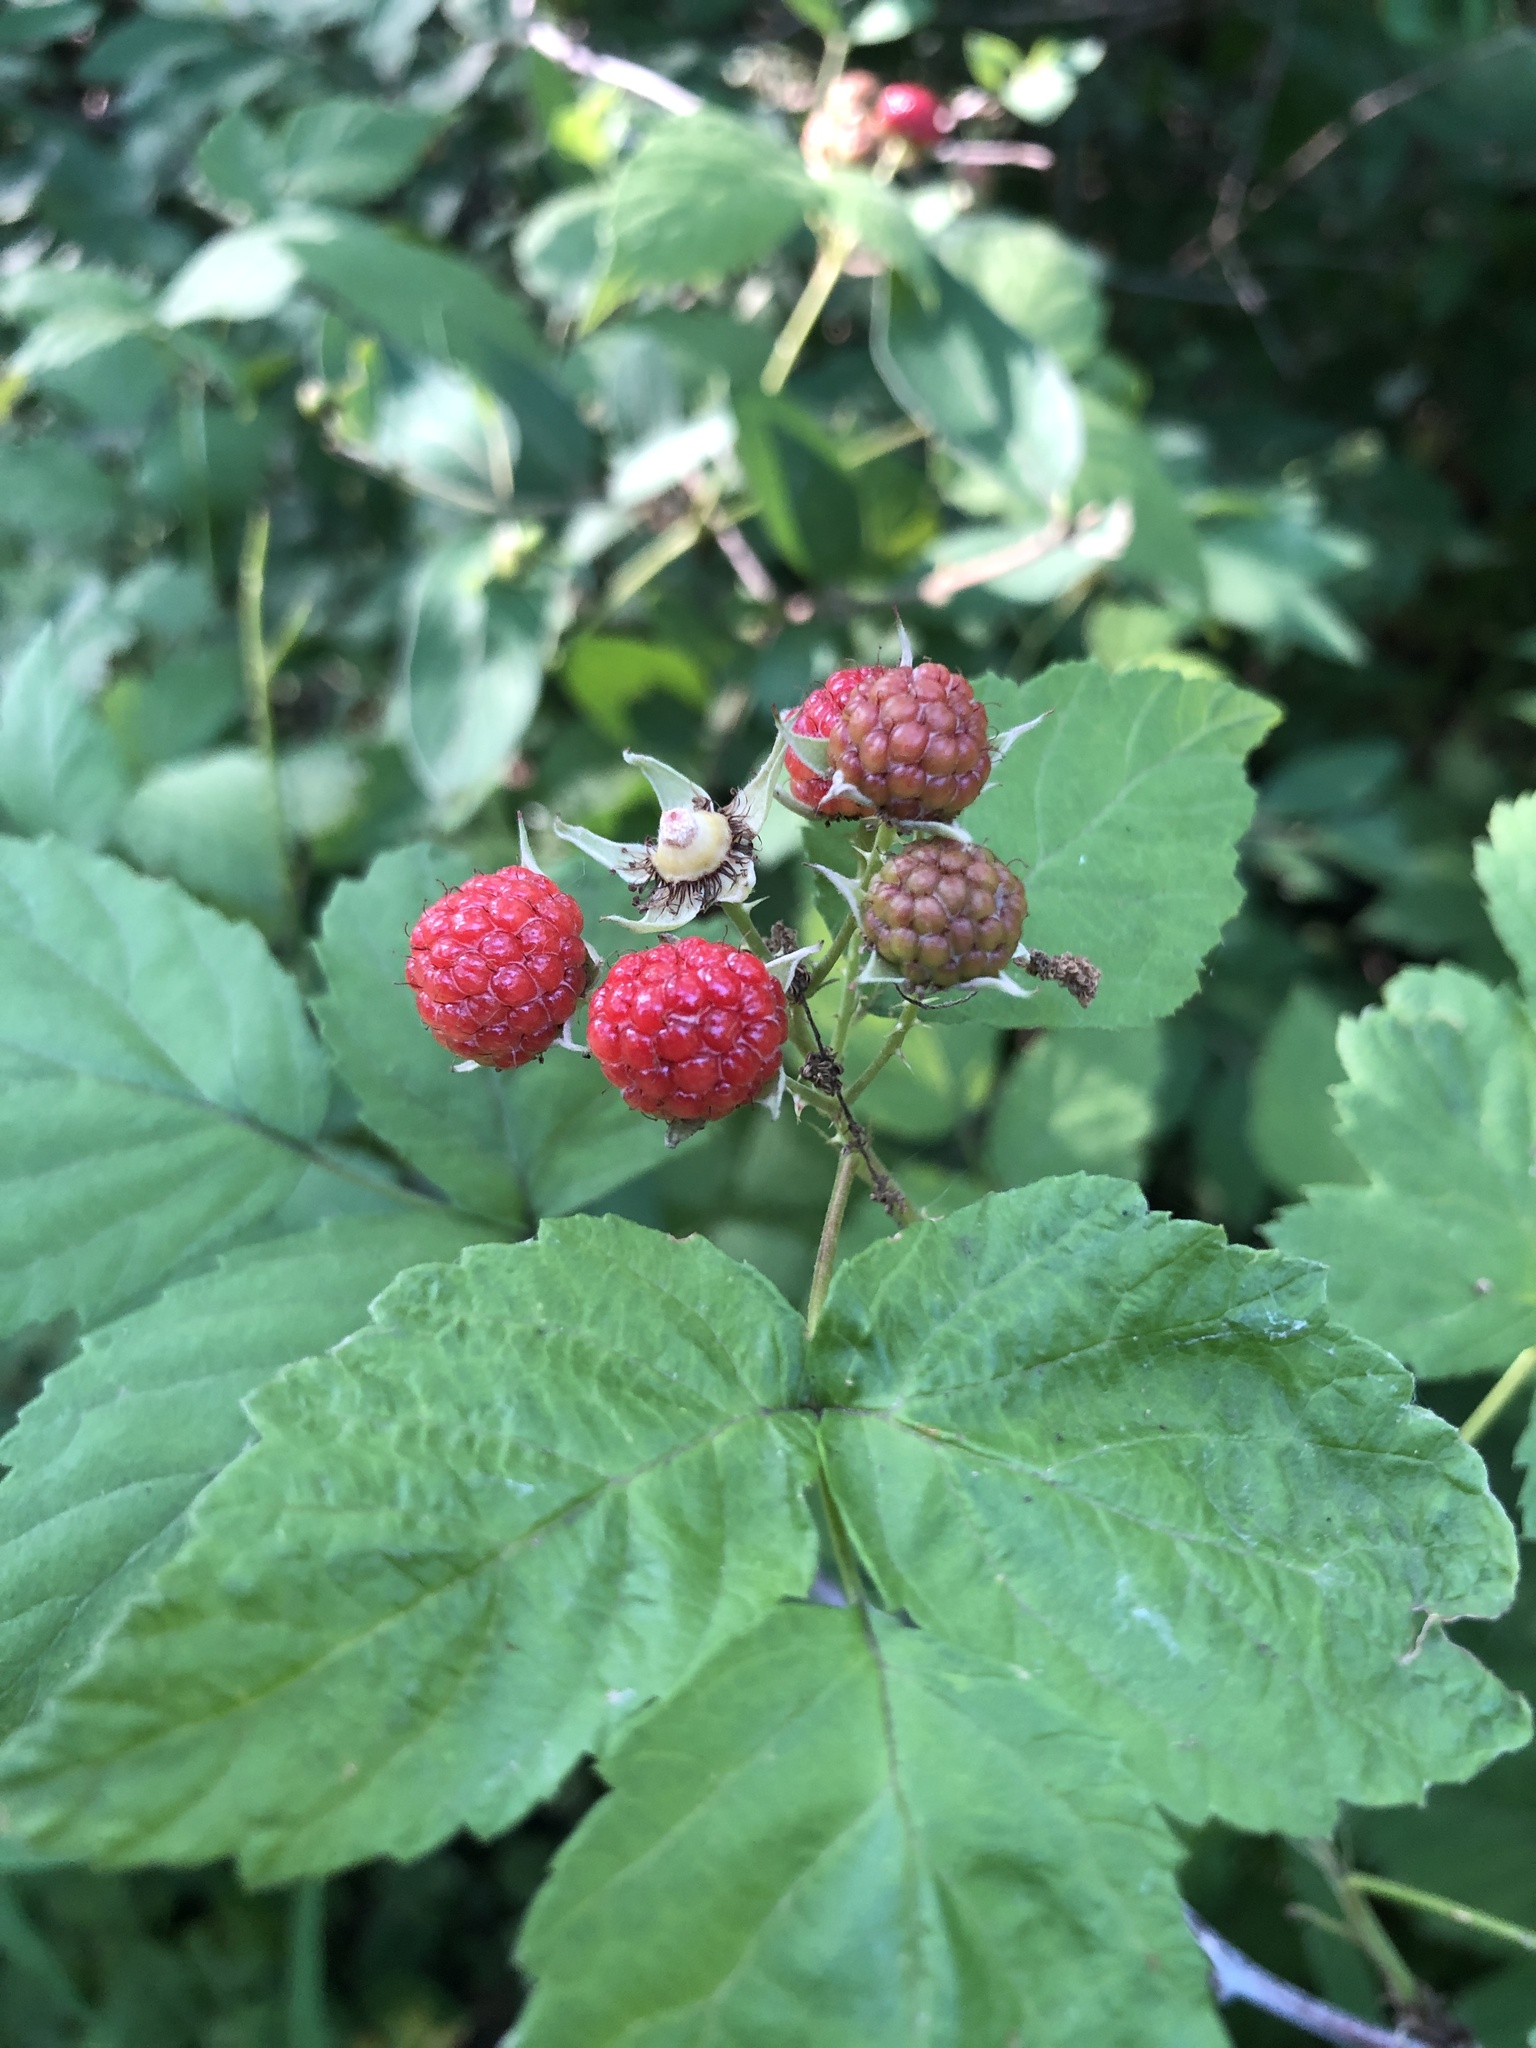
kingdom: Plantae
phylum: Tracheophyta
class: Magnoliopsida
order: Rosales
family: Rosaceae
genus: Rubus
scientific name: Rubus occidentalis
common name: Black raspberry
